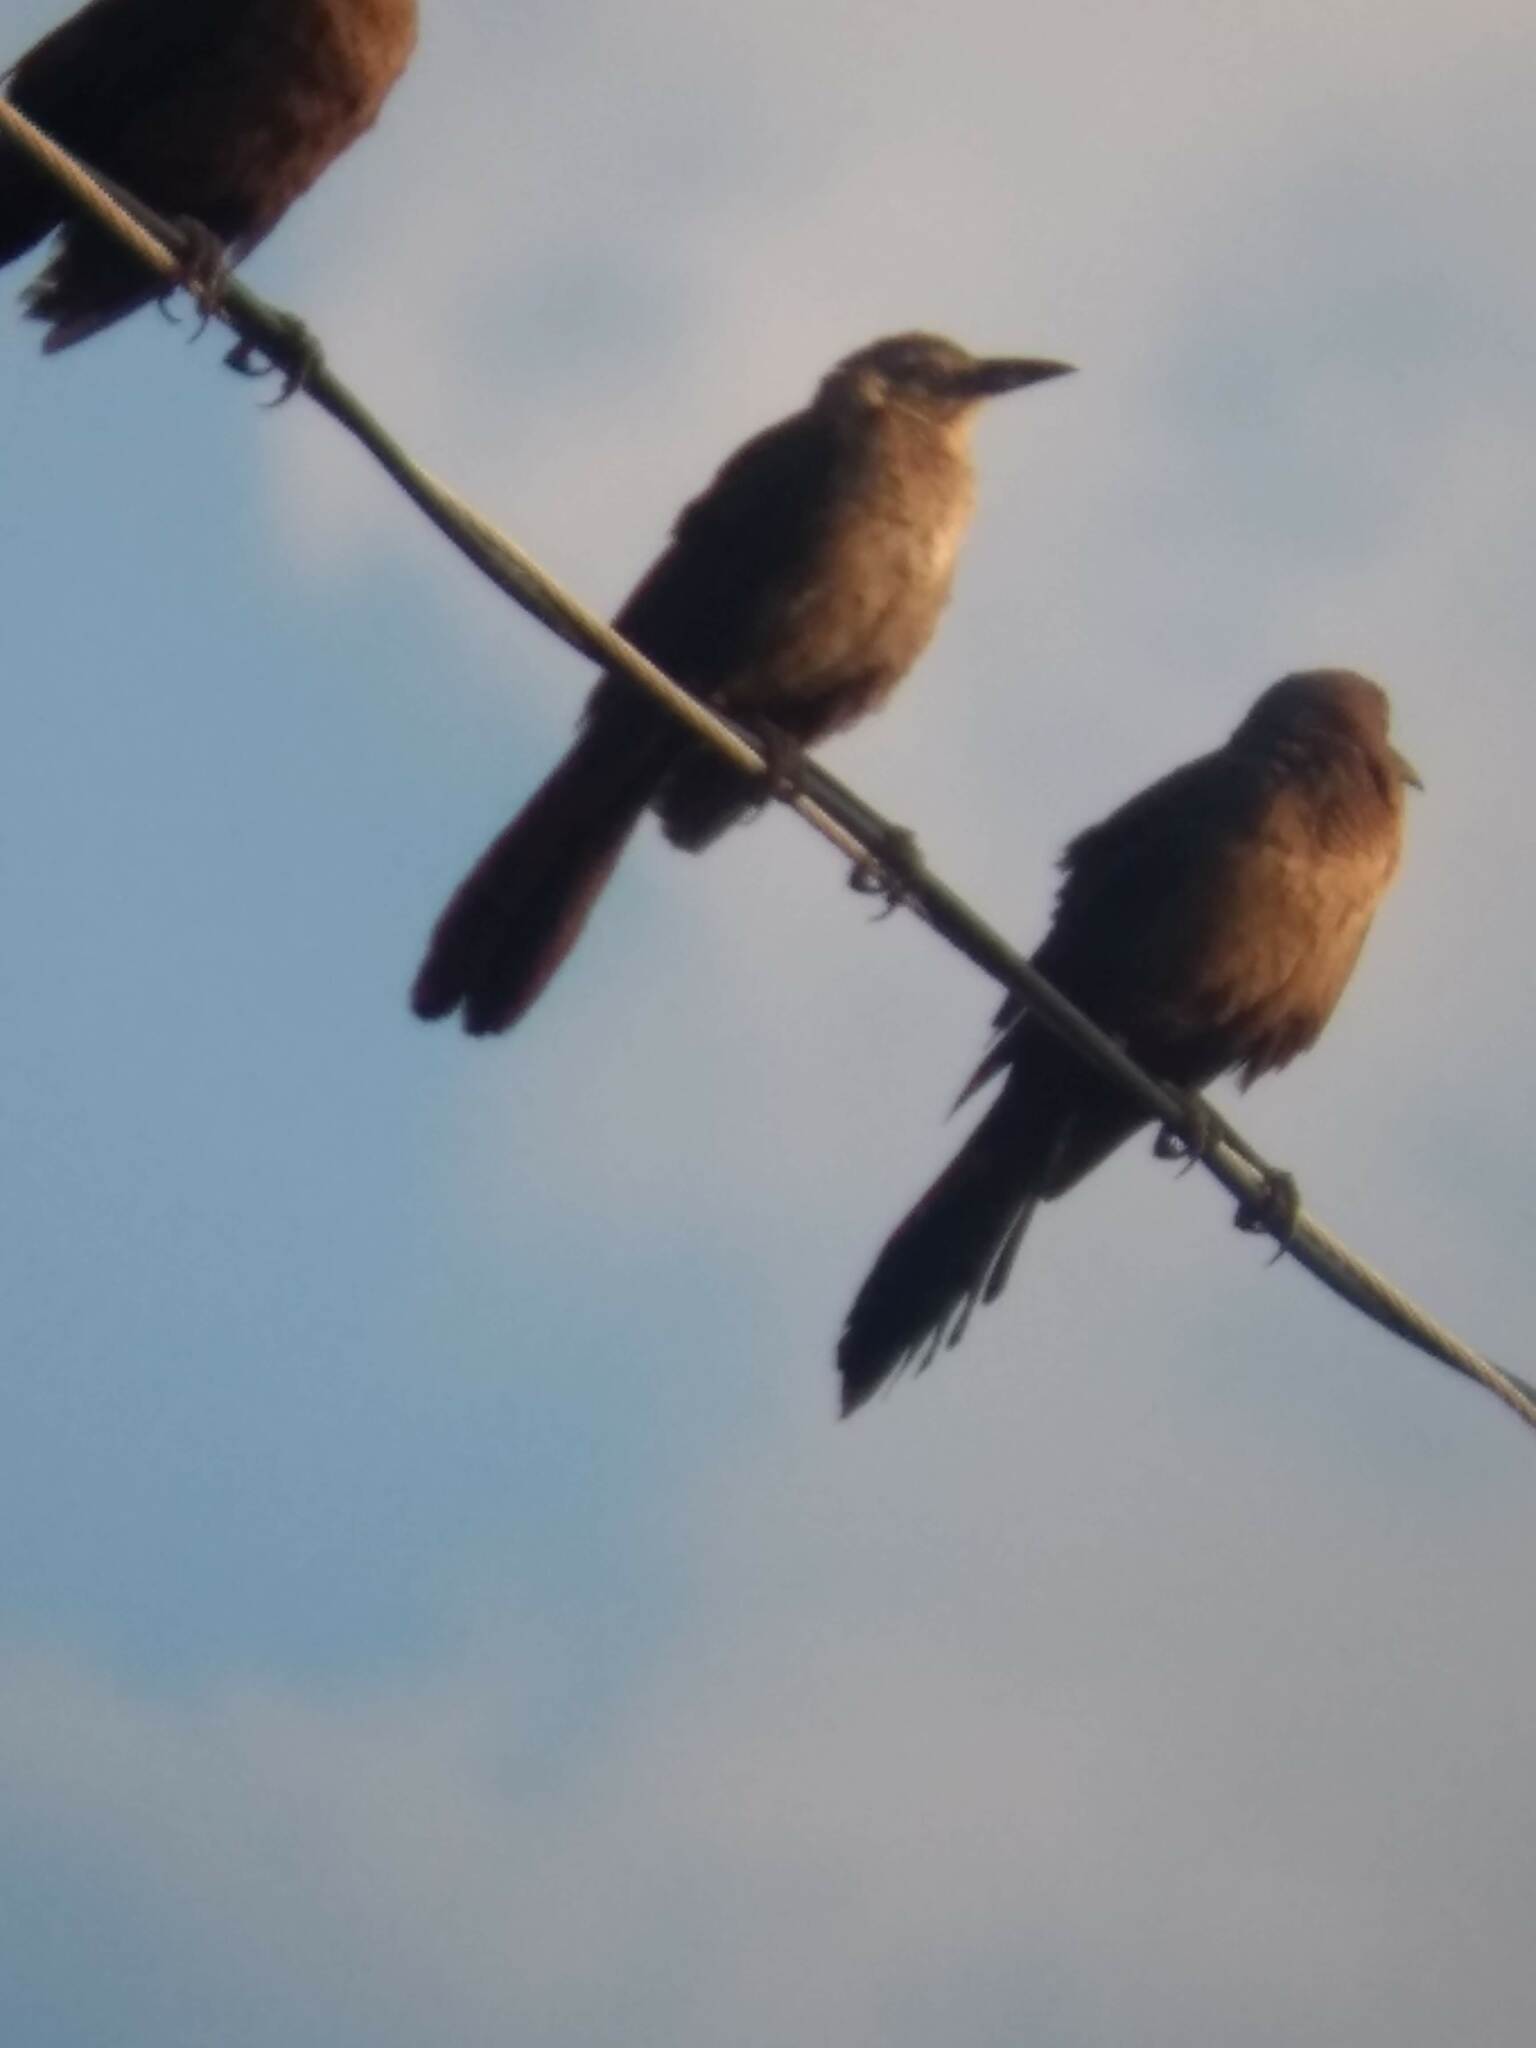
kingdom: Animalia
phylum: Chordata
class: Aves
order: Passeriformes
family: Icteridae
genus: Quiscalus
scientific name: Quiscalus mexicanus
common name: Great-tailed grackle
